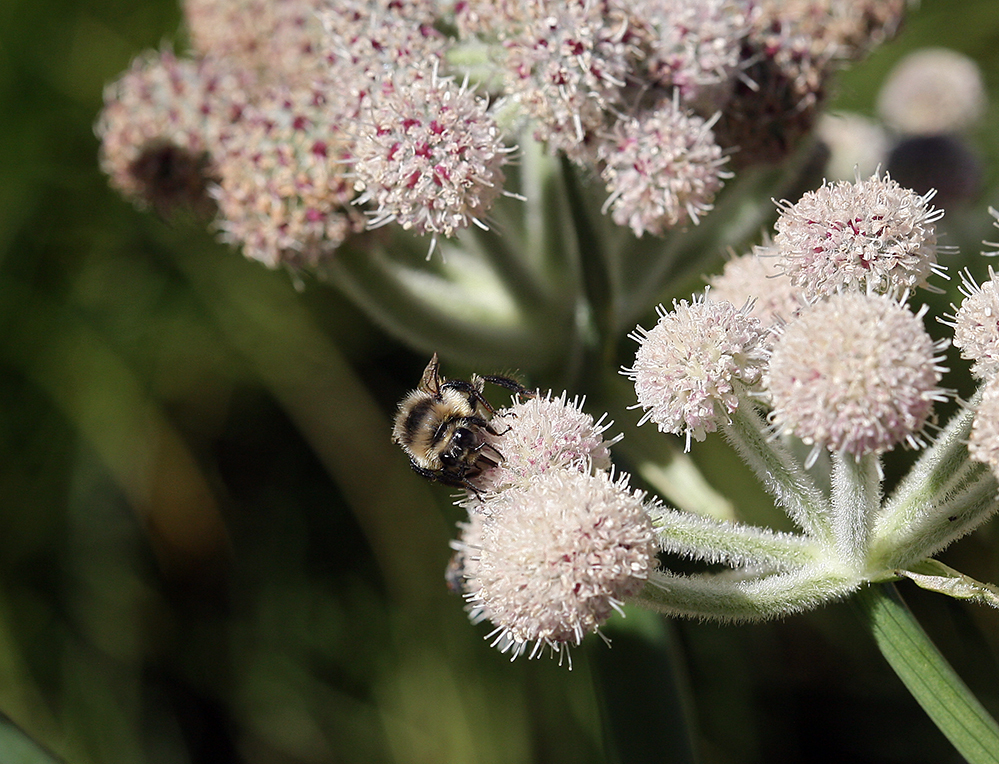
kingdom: Plantae
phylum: Tracheophyta
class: Magnoliopsida
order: Apiales
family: Apiaceae
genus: Angelica
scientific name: Angelica capitellata
